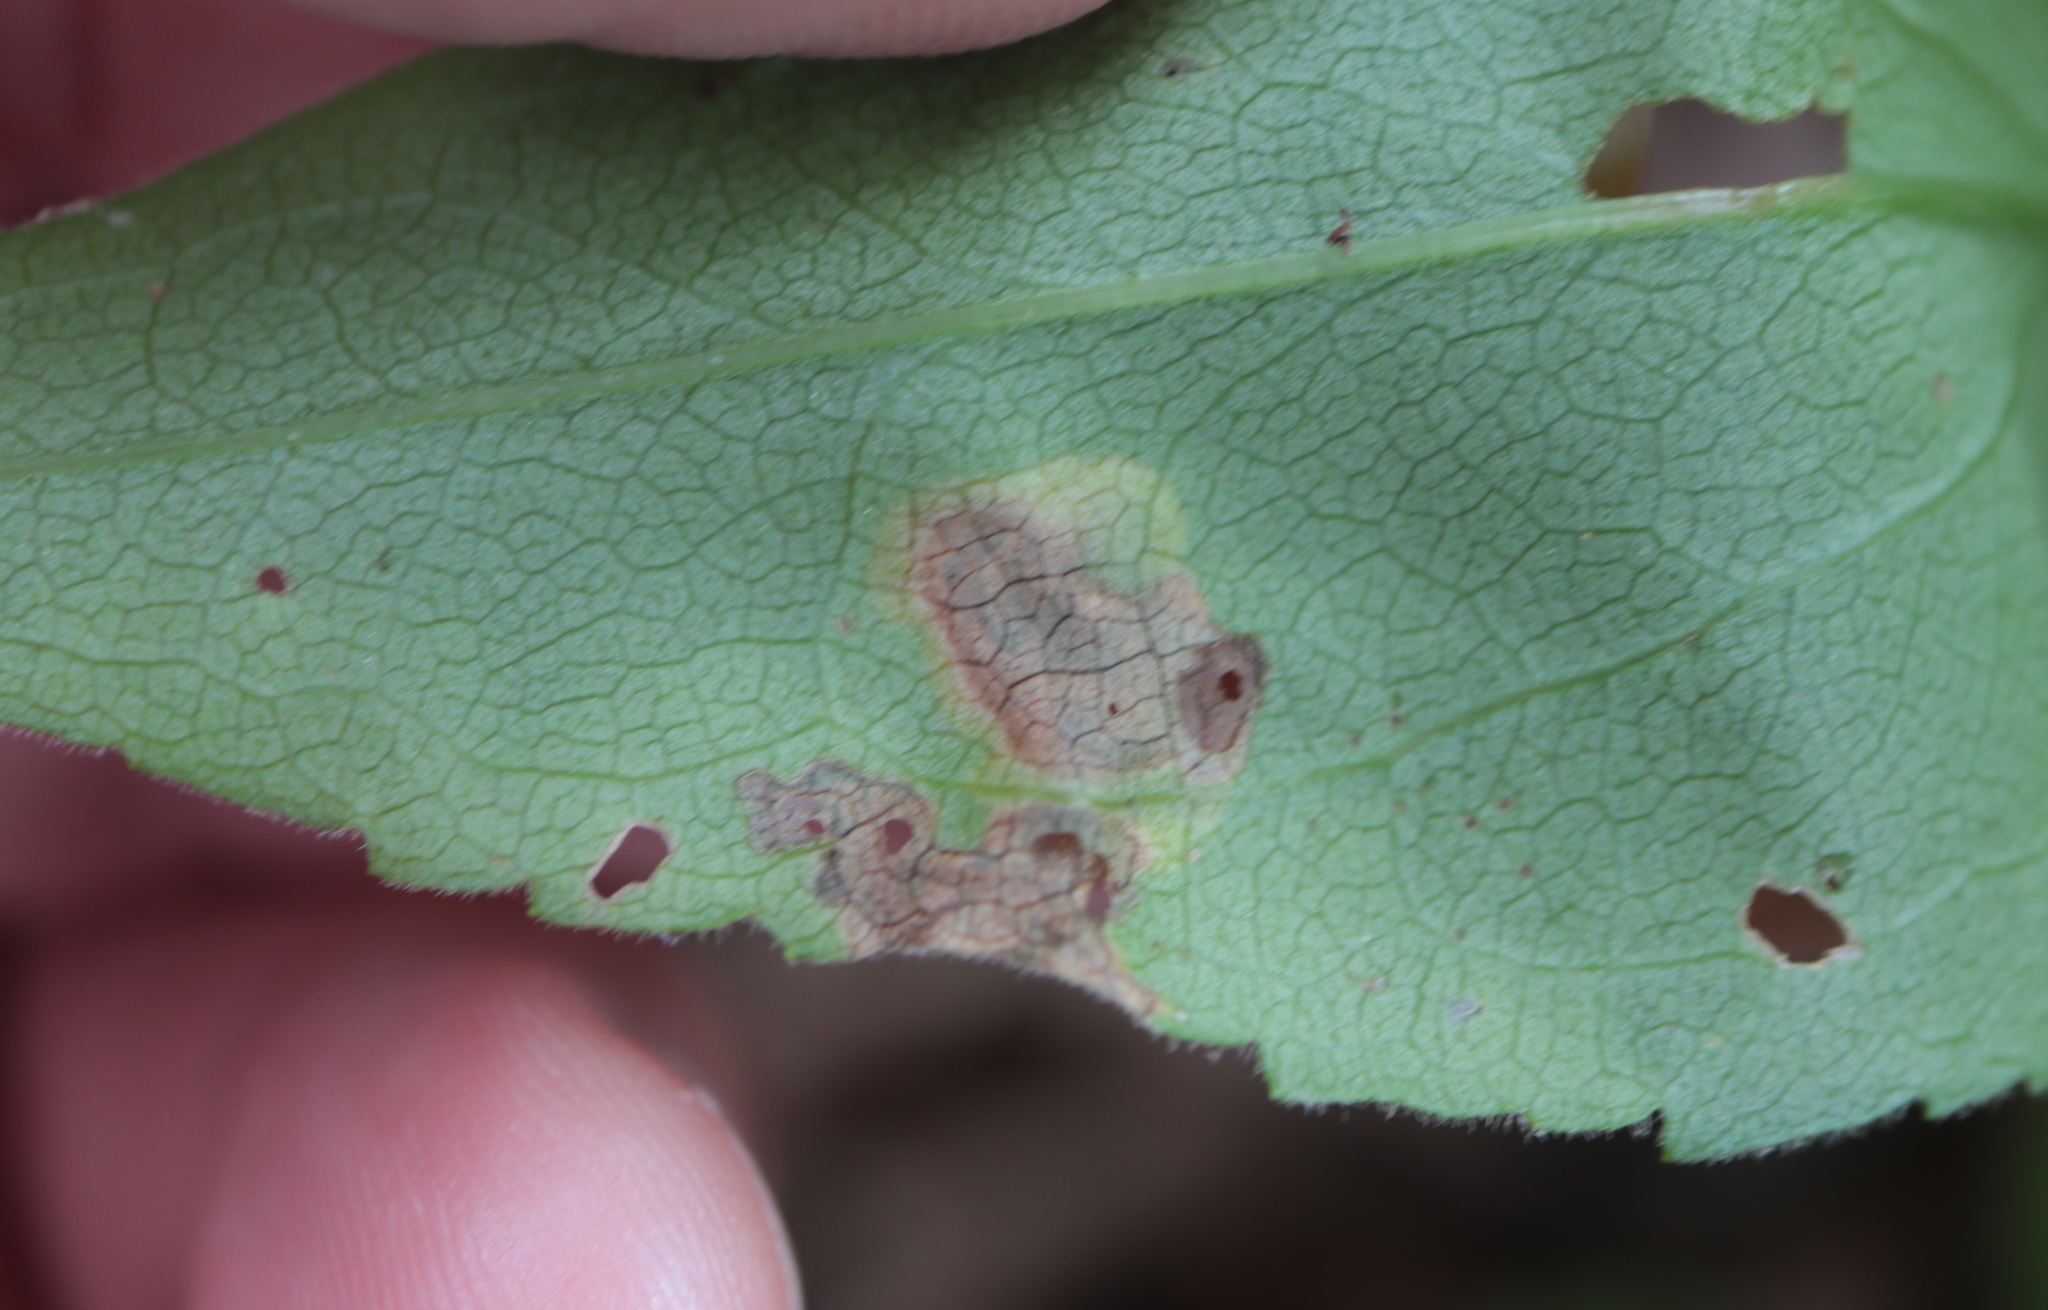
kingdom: Animalia
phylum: Arthropoda
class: Insecta
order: Diptera
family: Agromyzidae
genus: Nemorimyza
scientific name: Nemorimyza posticata
